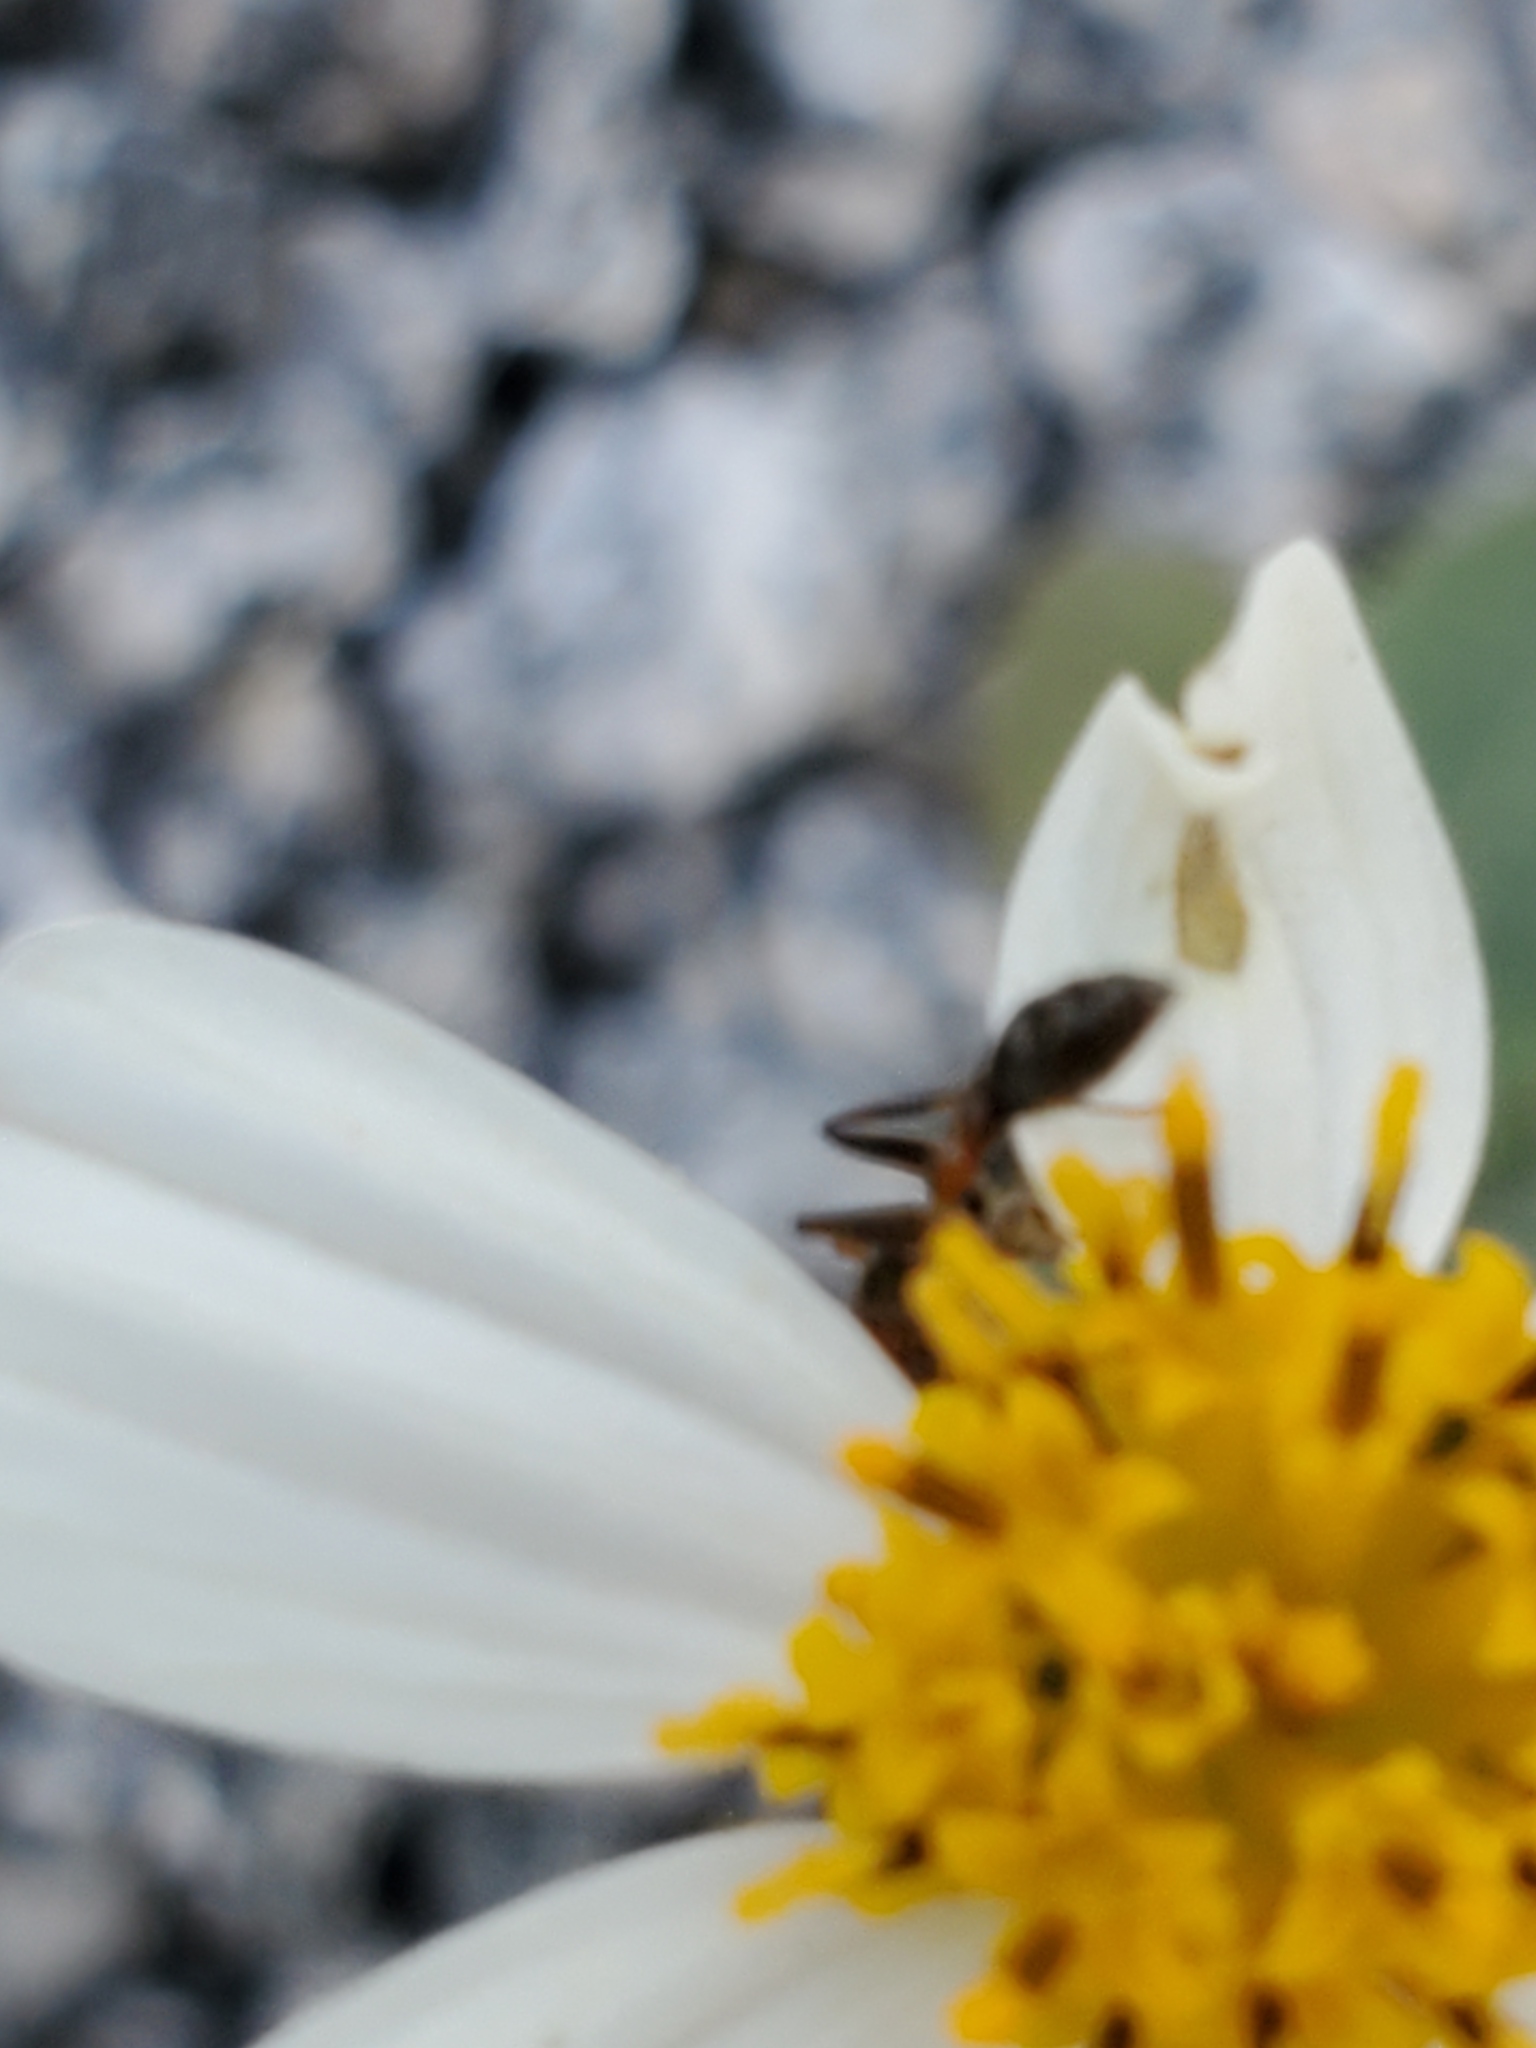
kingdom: Plantae
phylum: Tracheophyta
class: Magnoliopsida
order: Asterales
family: Asteraceae
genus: Bidens
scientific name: Bidens alba
